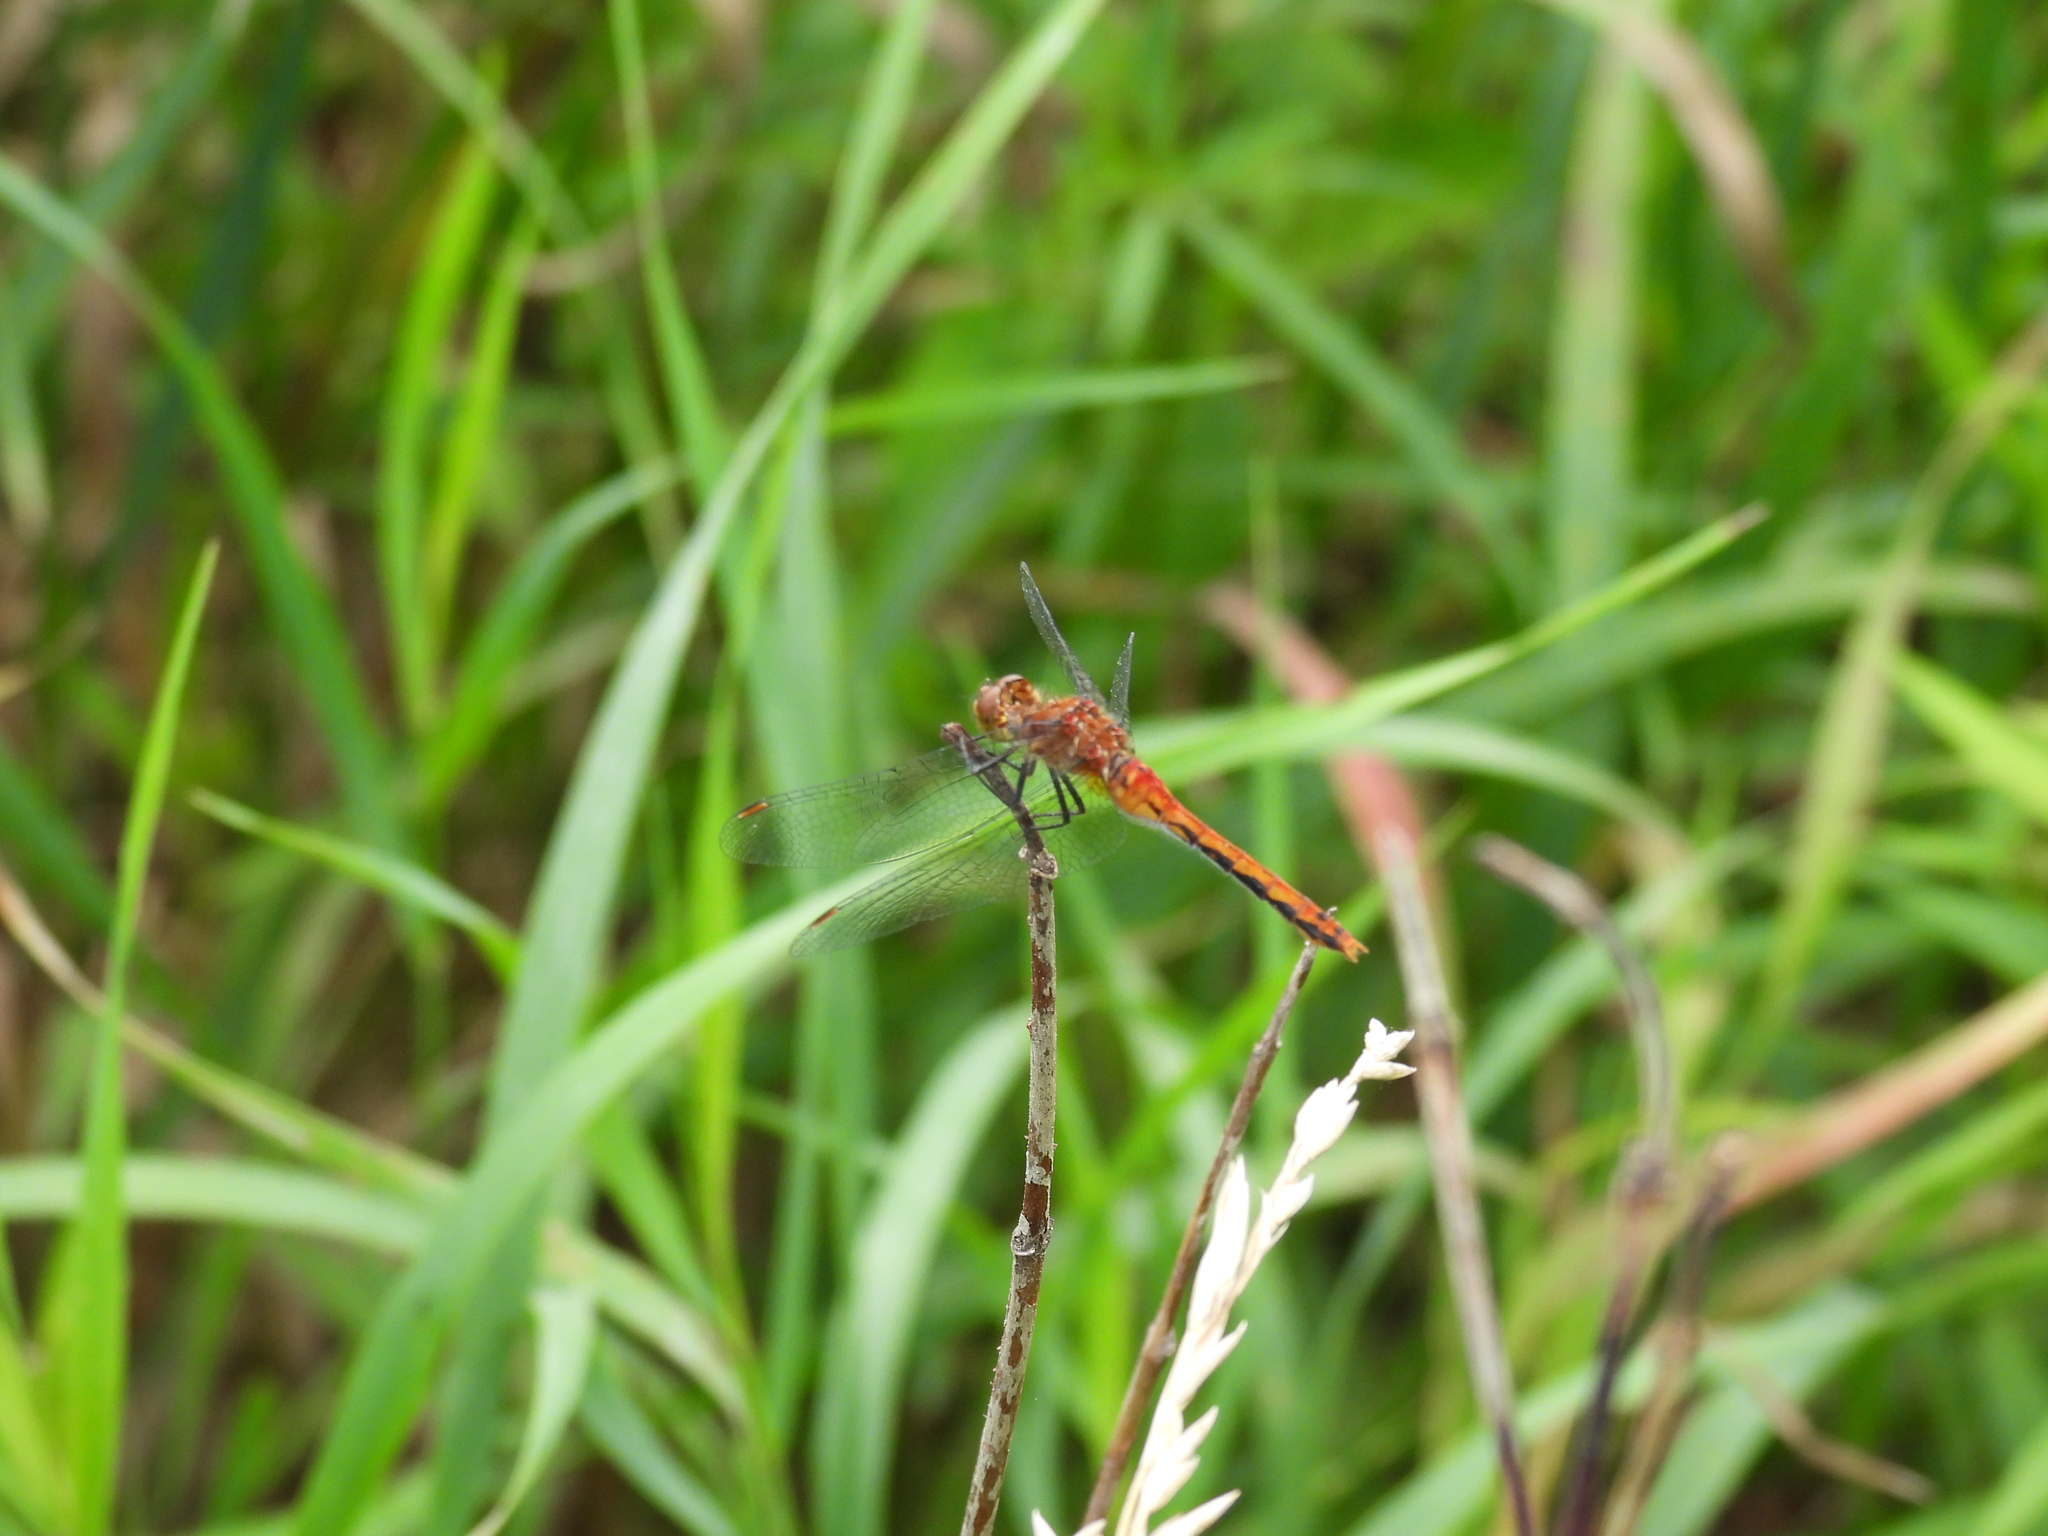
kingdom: Animalia
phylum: Arthropoda
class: Insecta
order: Odonata
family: Libellulidae
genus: Sympetrum
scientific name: Sympetrum
